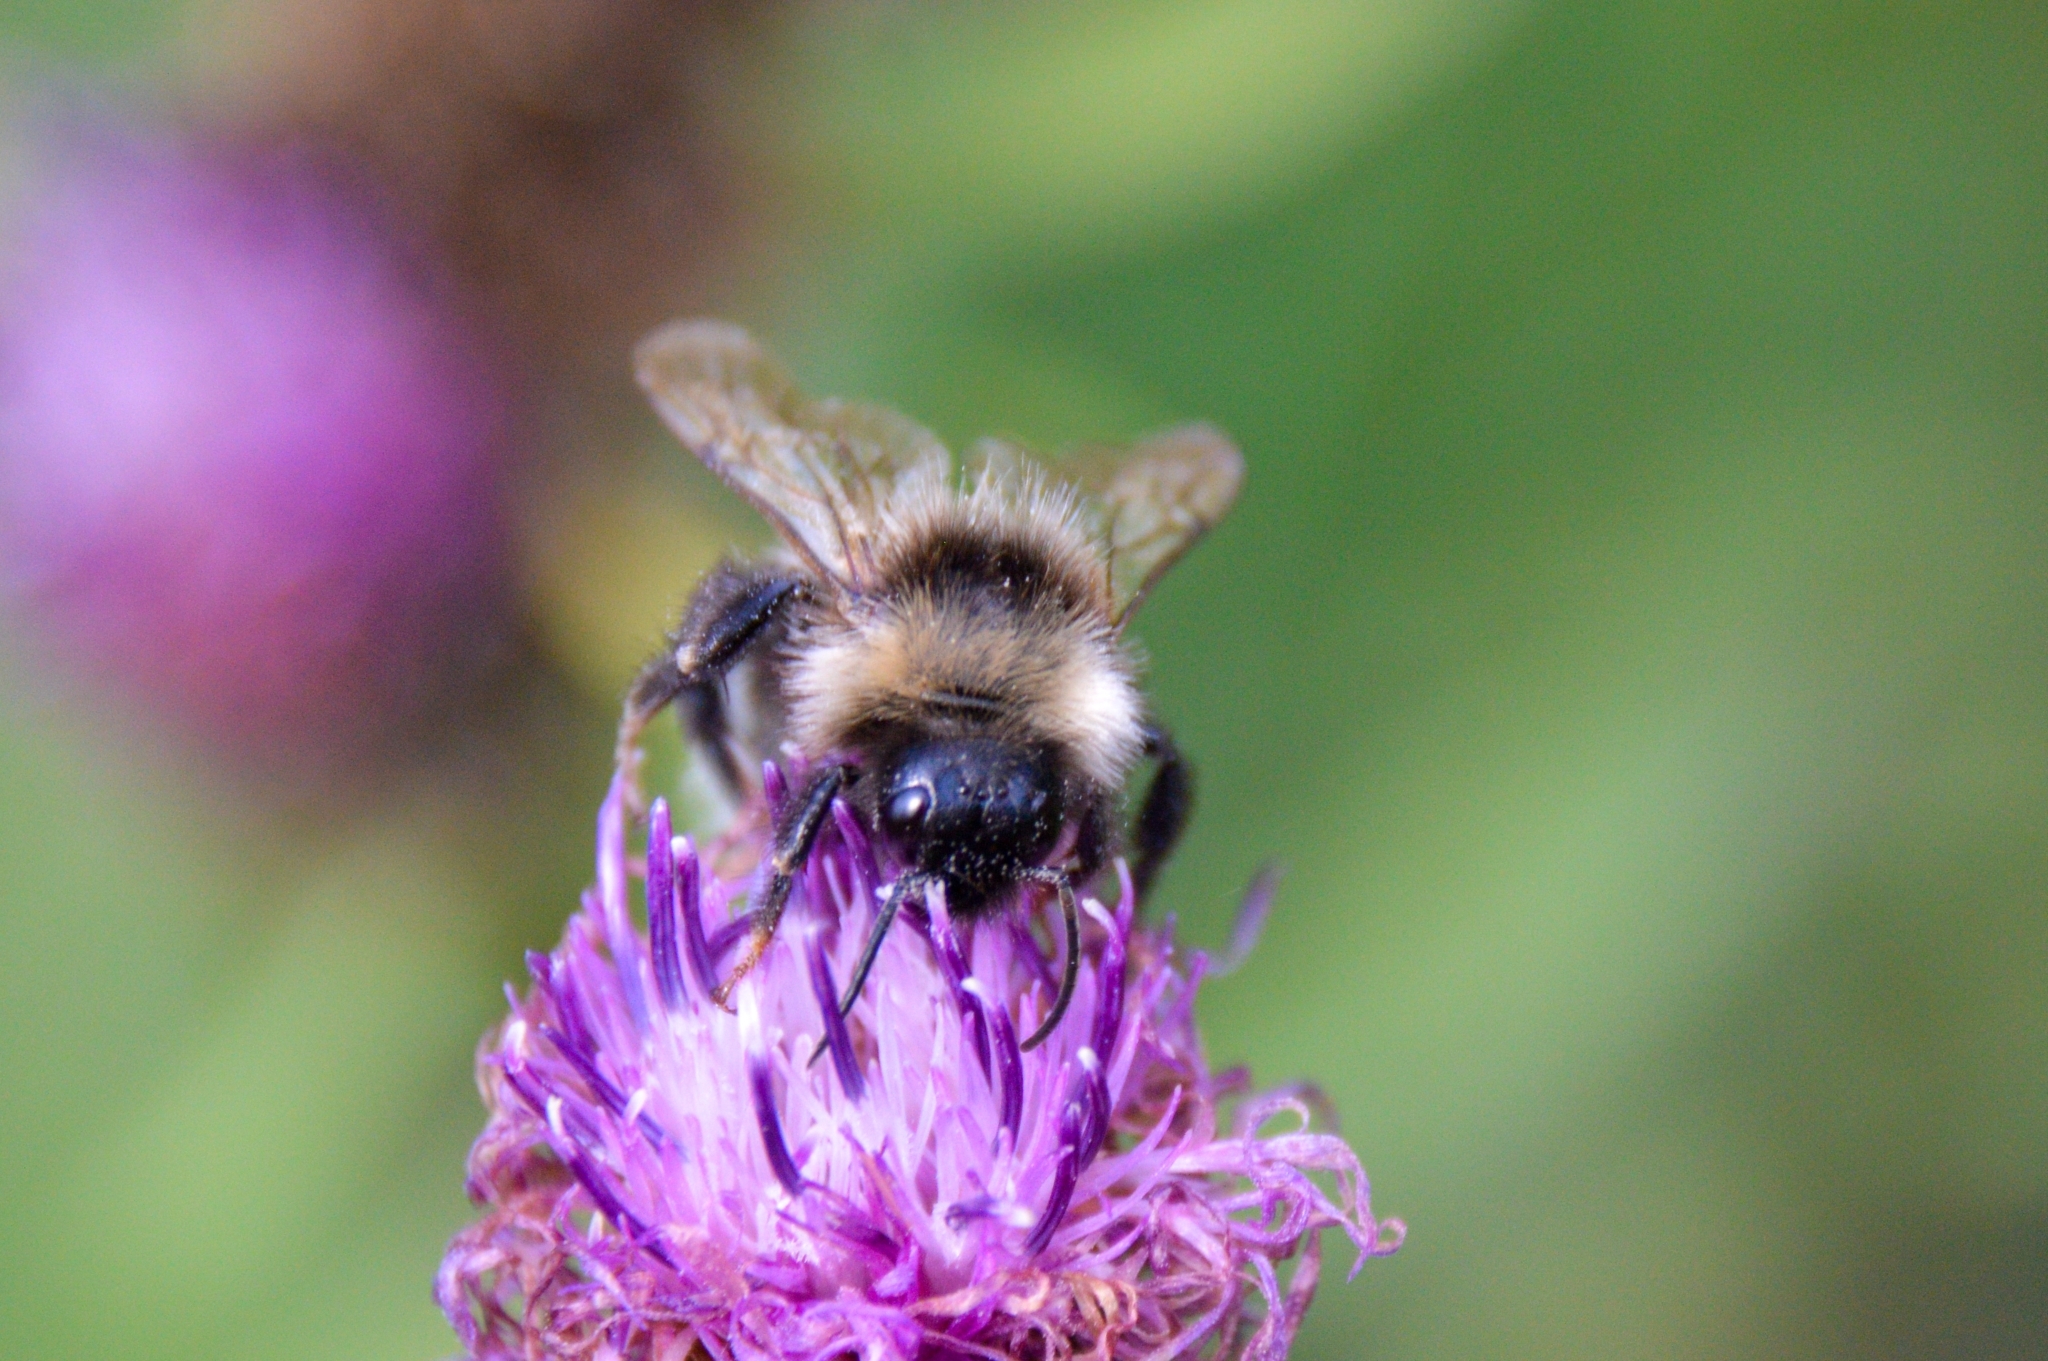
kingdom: Animalia
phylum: Arthropoda
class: Insecta
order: Hymenoptera
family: Apidae
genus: Bombus
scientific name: Bombus bohemicus
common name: Gypsy cuckoo bee
